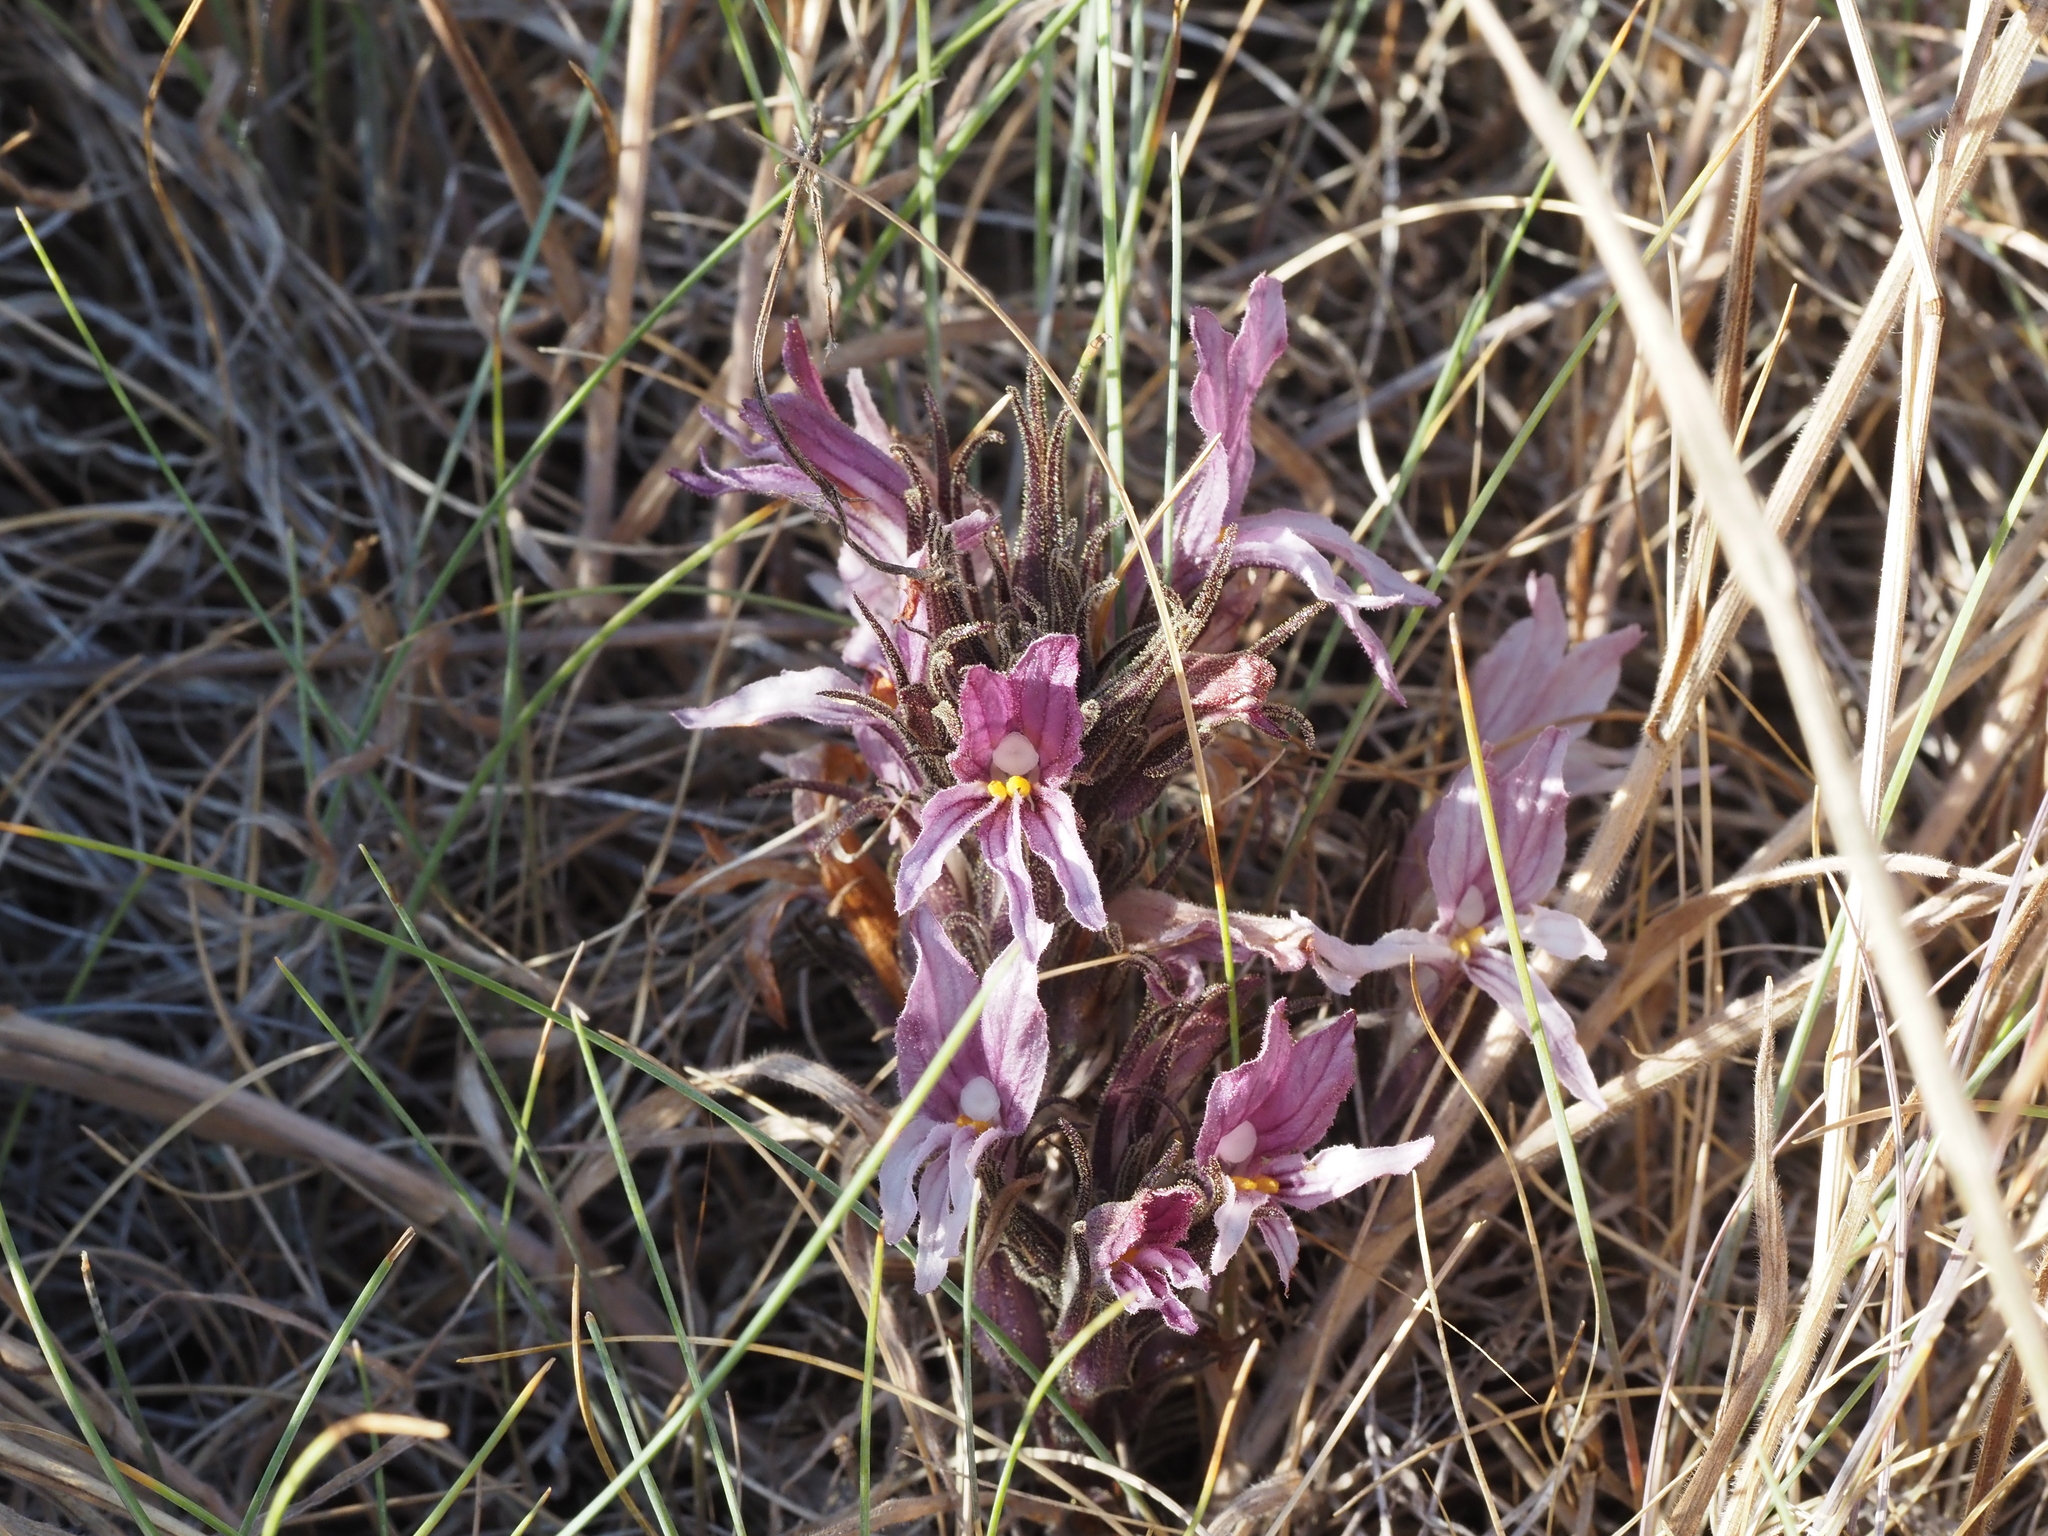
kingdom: Plantae
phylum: Tracheophyta
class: Magnoliopsida
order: Lamiales
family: Orobanchaceae
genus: Aphyllon
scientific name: Aphyllon californicum
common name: California broomrape
